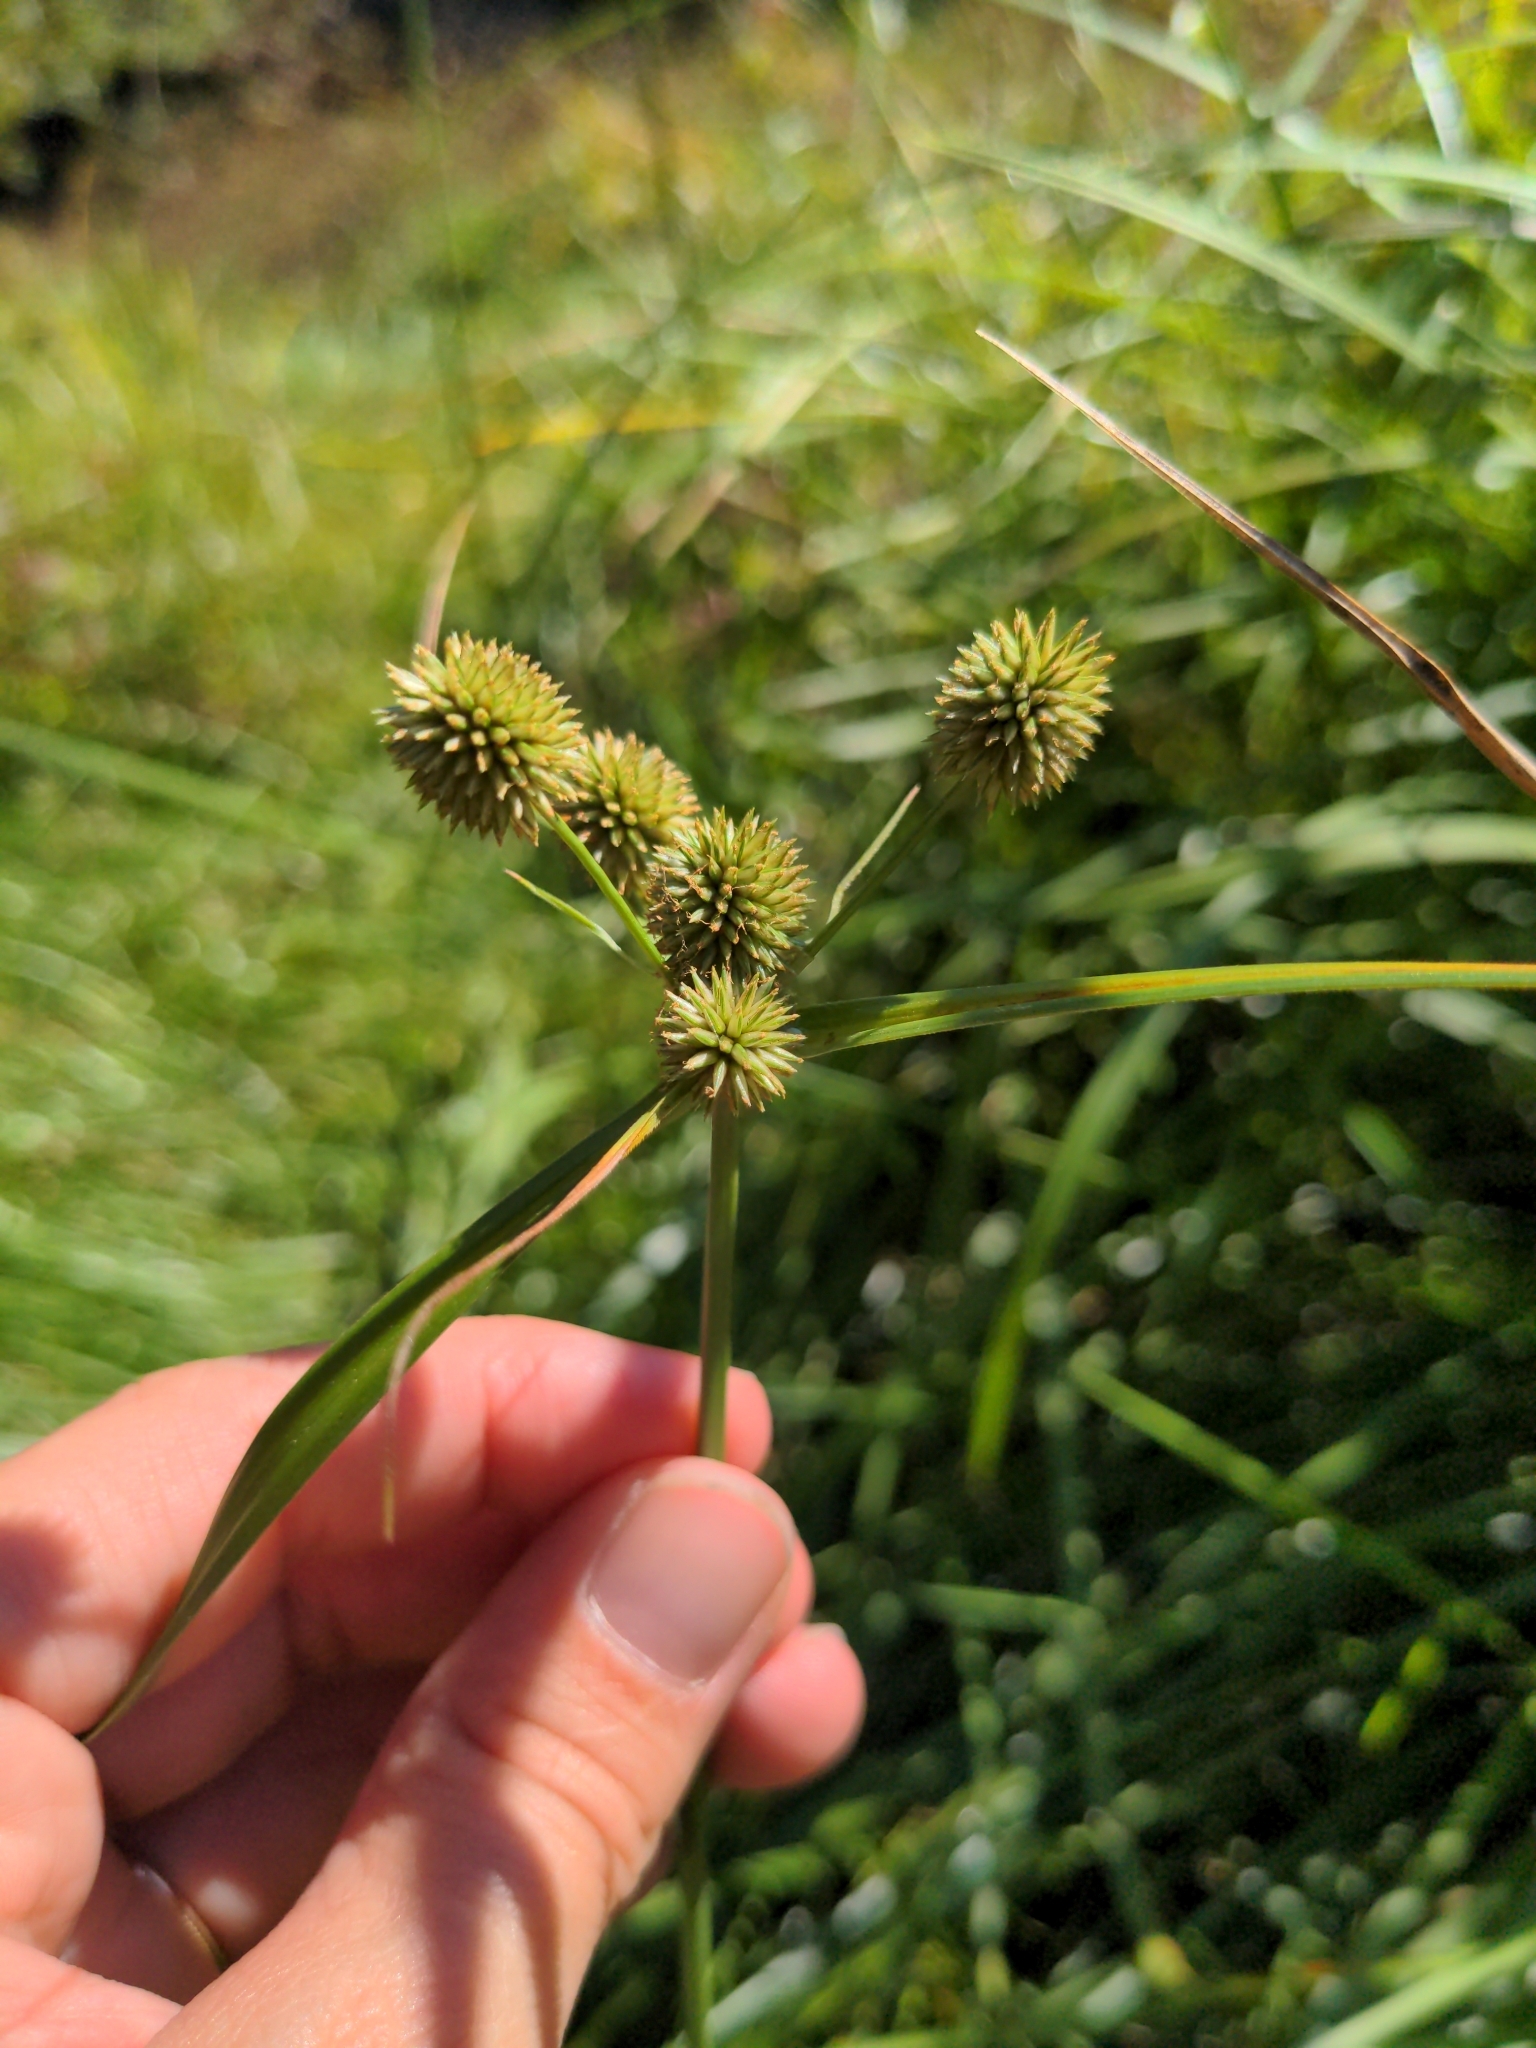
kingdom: Plantae
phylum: Tracheophyta
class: Liliopsida
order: Poales
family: Cyperaceae
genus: Cyperus
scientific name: Cyperus echinatus
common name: Teasel sedge
